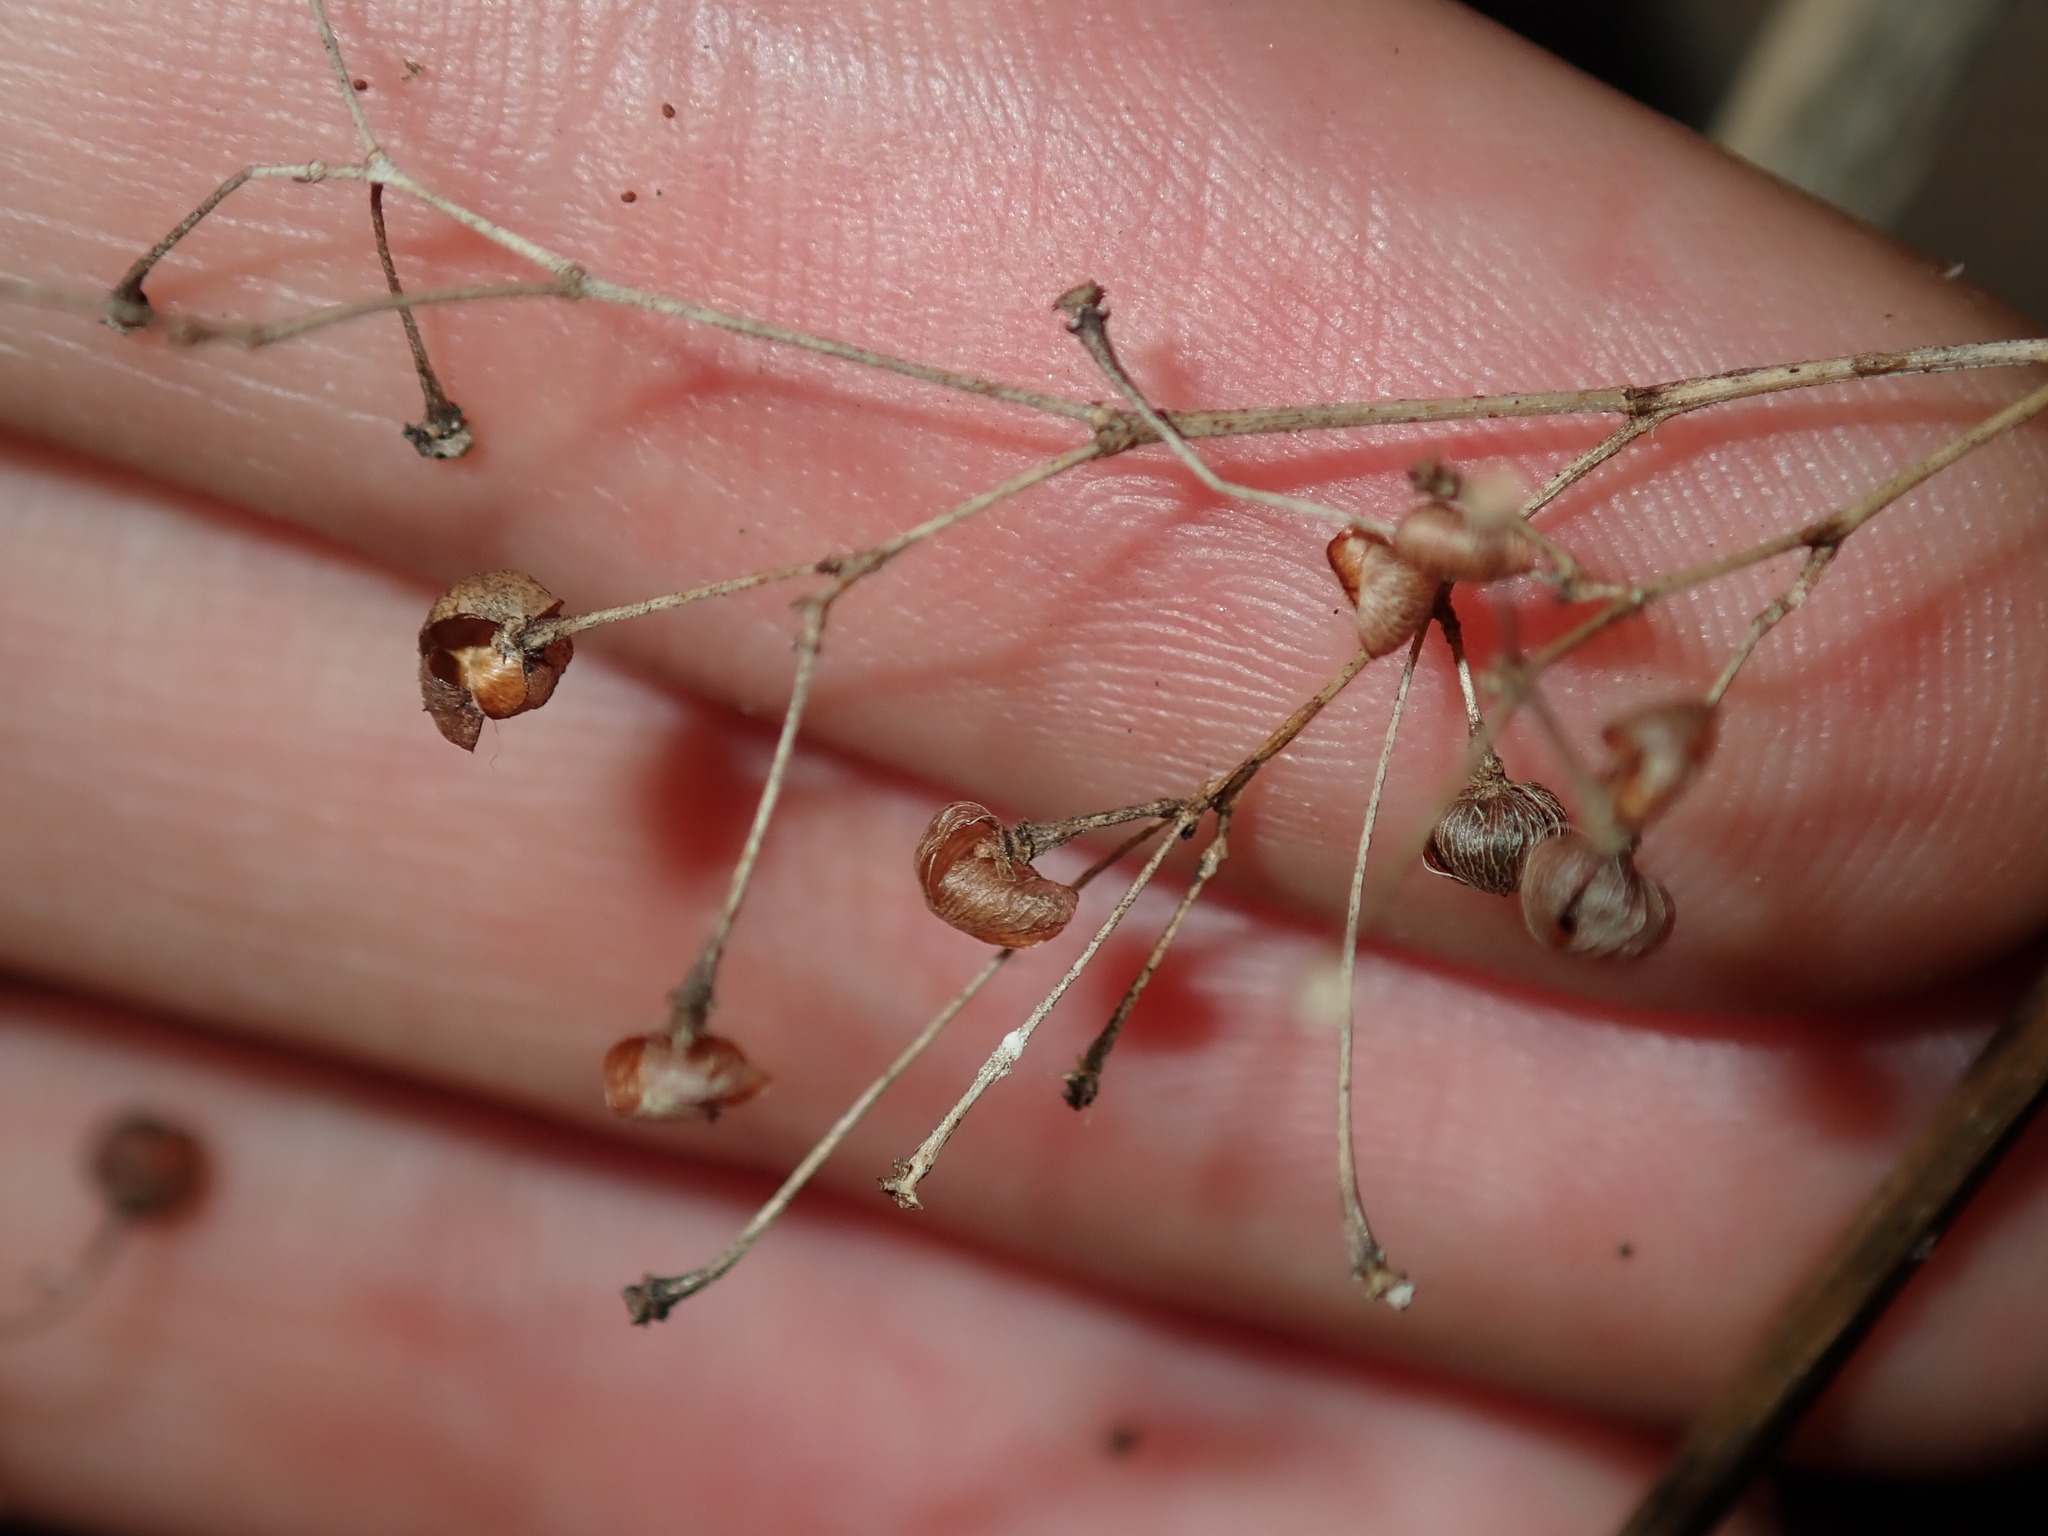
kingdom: Plantae
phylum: Tracheophyta
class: Magnoliopsida
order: Caryophyllales
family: Talinaceae
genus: Talinum
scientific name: Talinum paniculatum
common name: Jewels of opar
